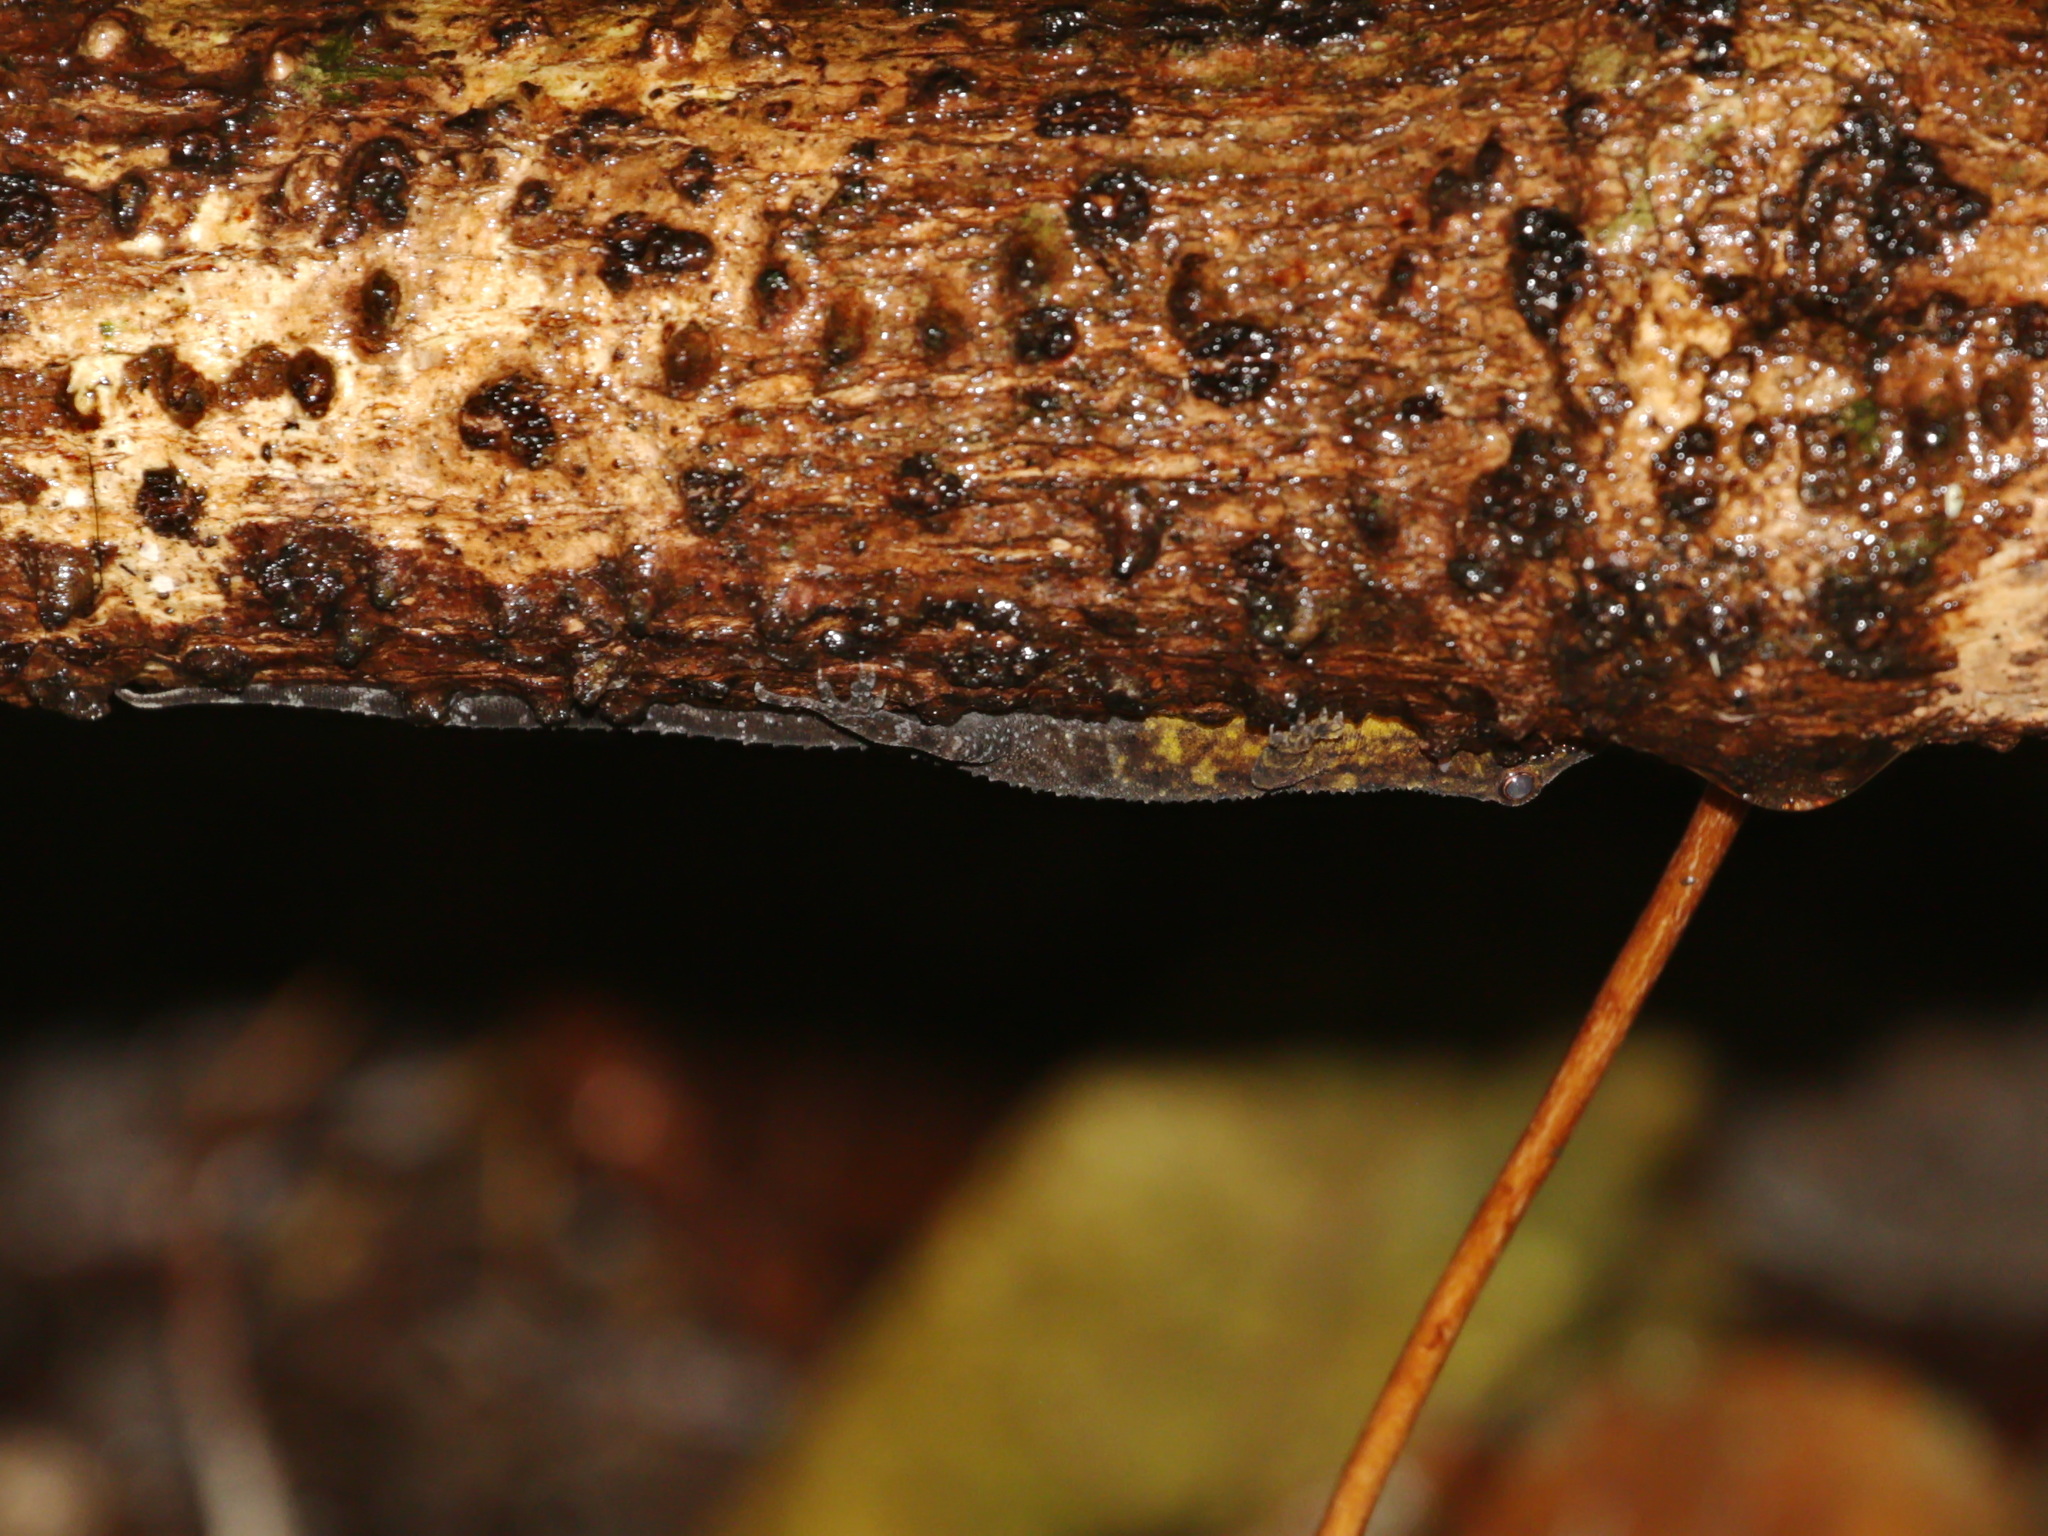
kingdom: Animalia
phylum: Chordata
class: Squamata
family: Gekkonidae
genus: Cnemaspis
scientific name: Cnemaspis selenolagus
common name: Moon rabbit rock gecko
